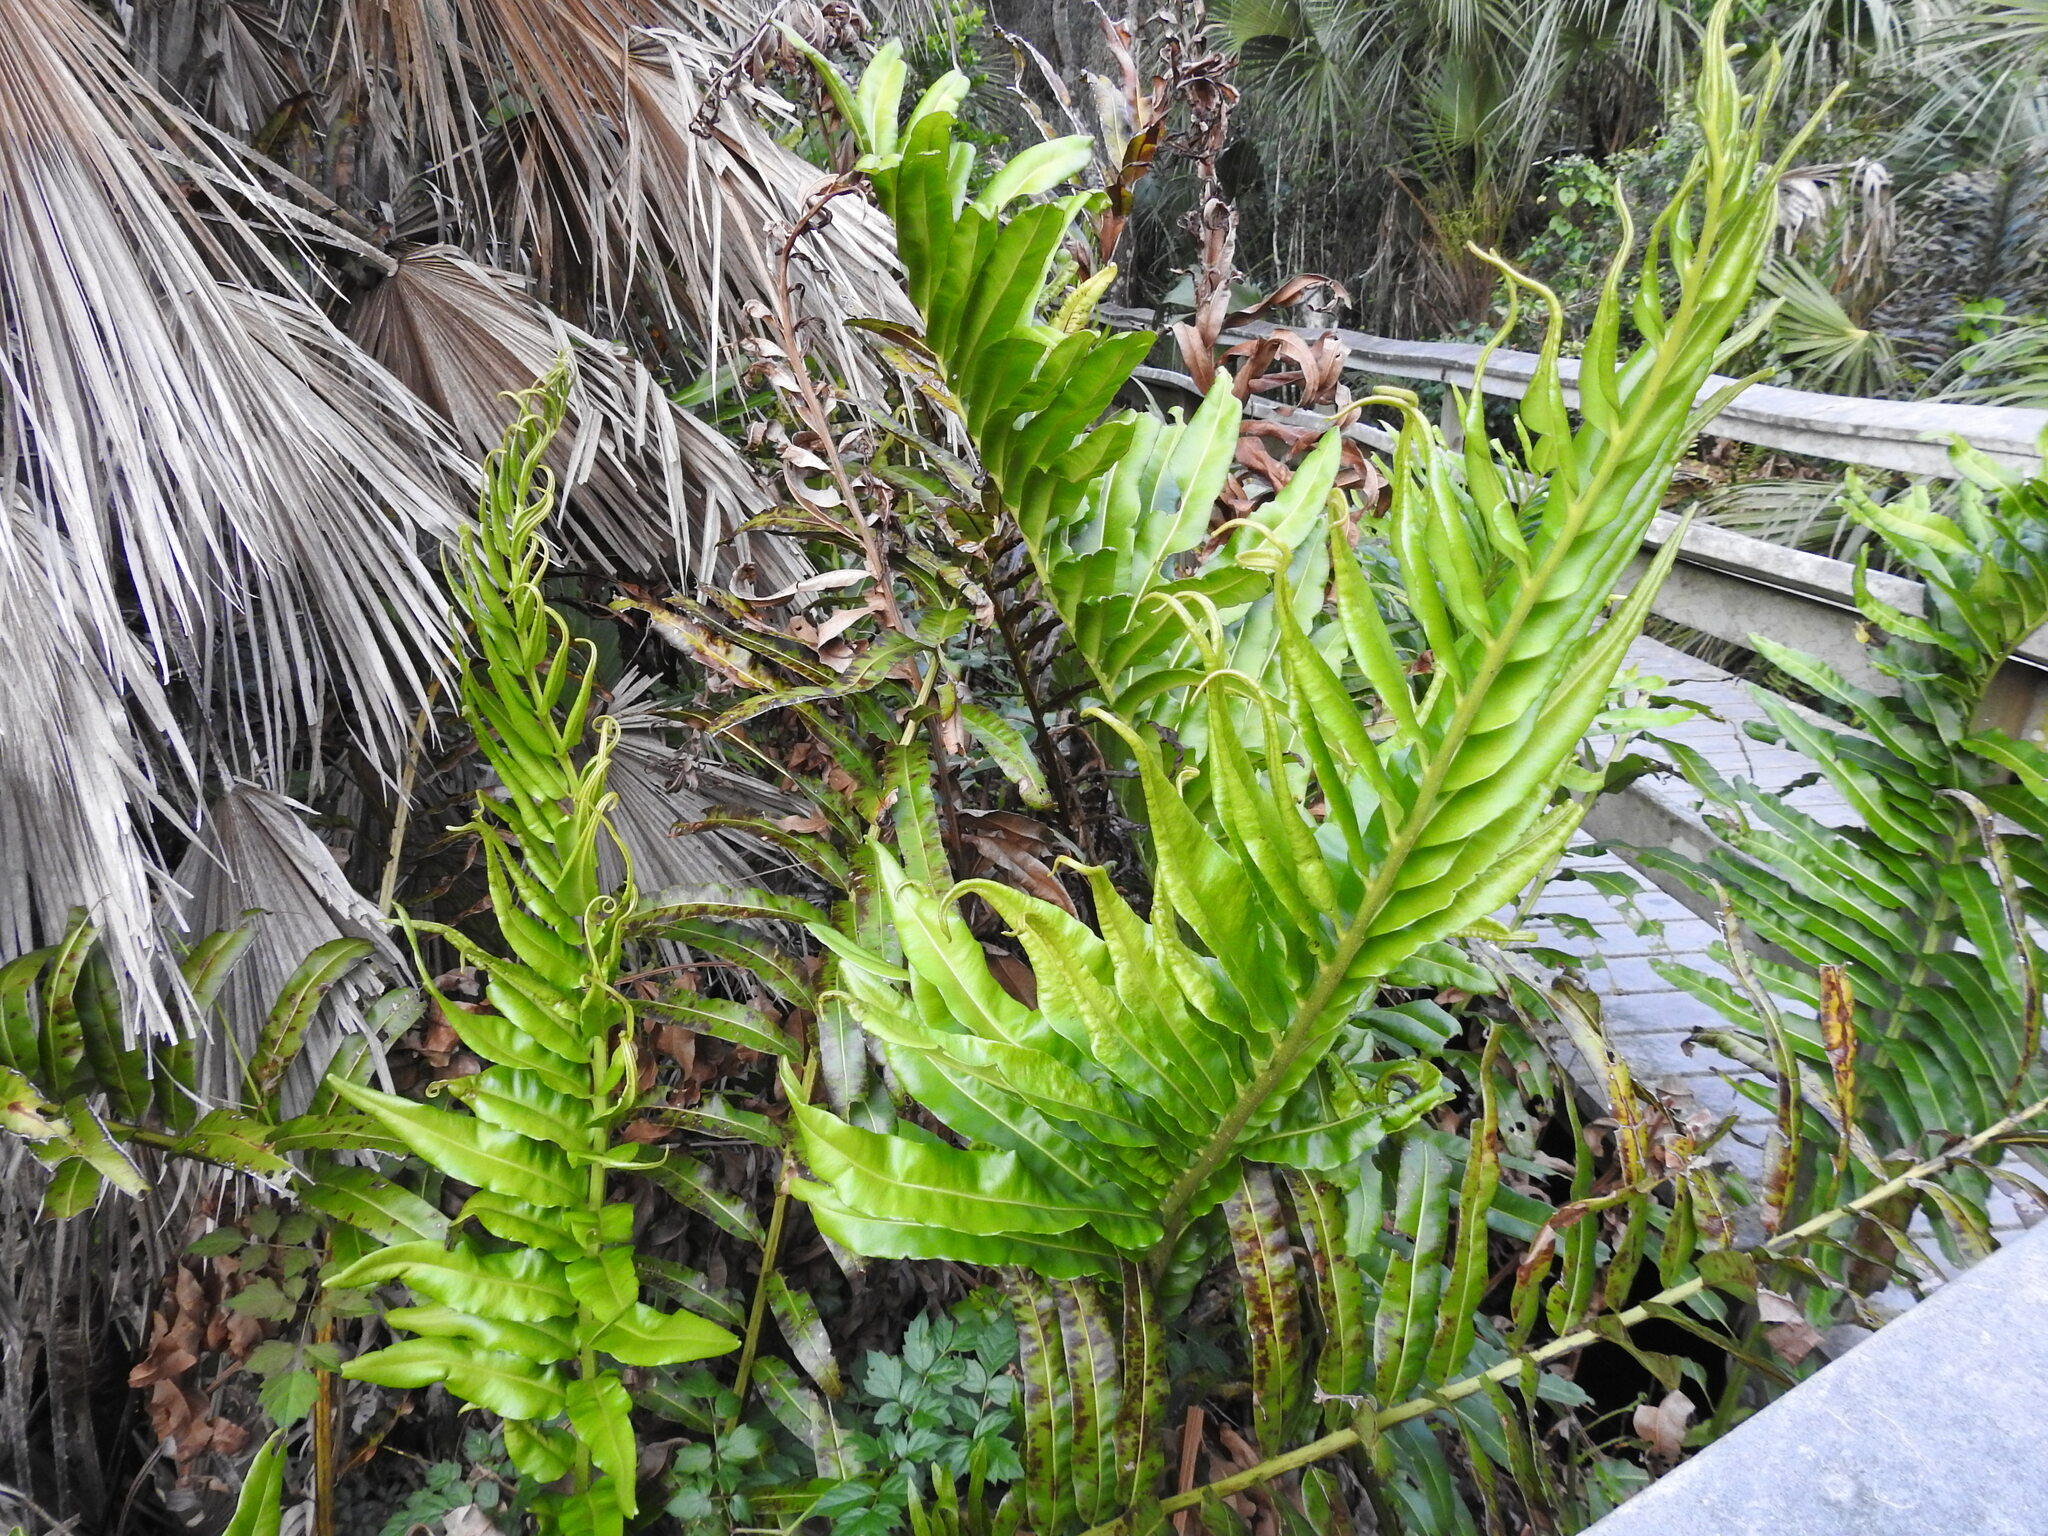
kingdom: Plantae
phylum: Tracheophyta
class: Polypodiopsida
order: Polypodiales
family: Pteridaceae
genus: Acrostichum
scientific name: Acrostichum danaeifolium
